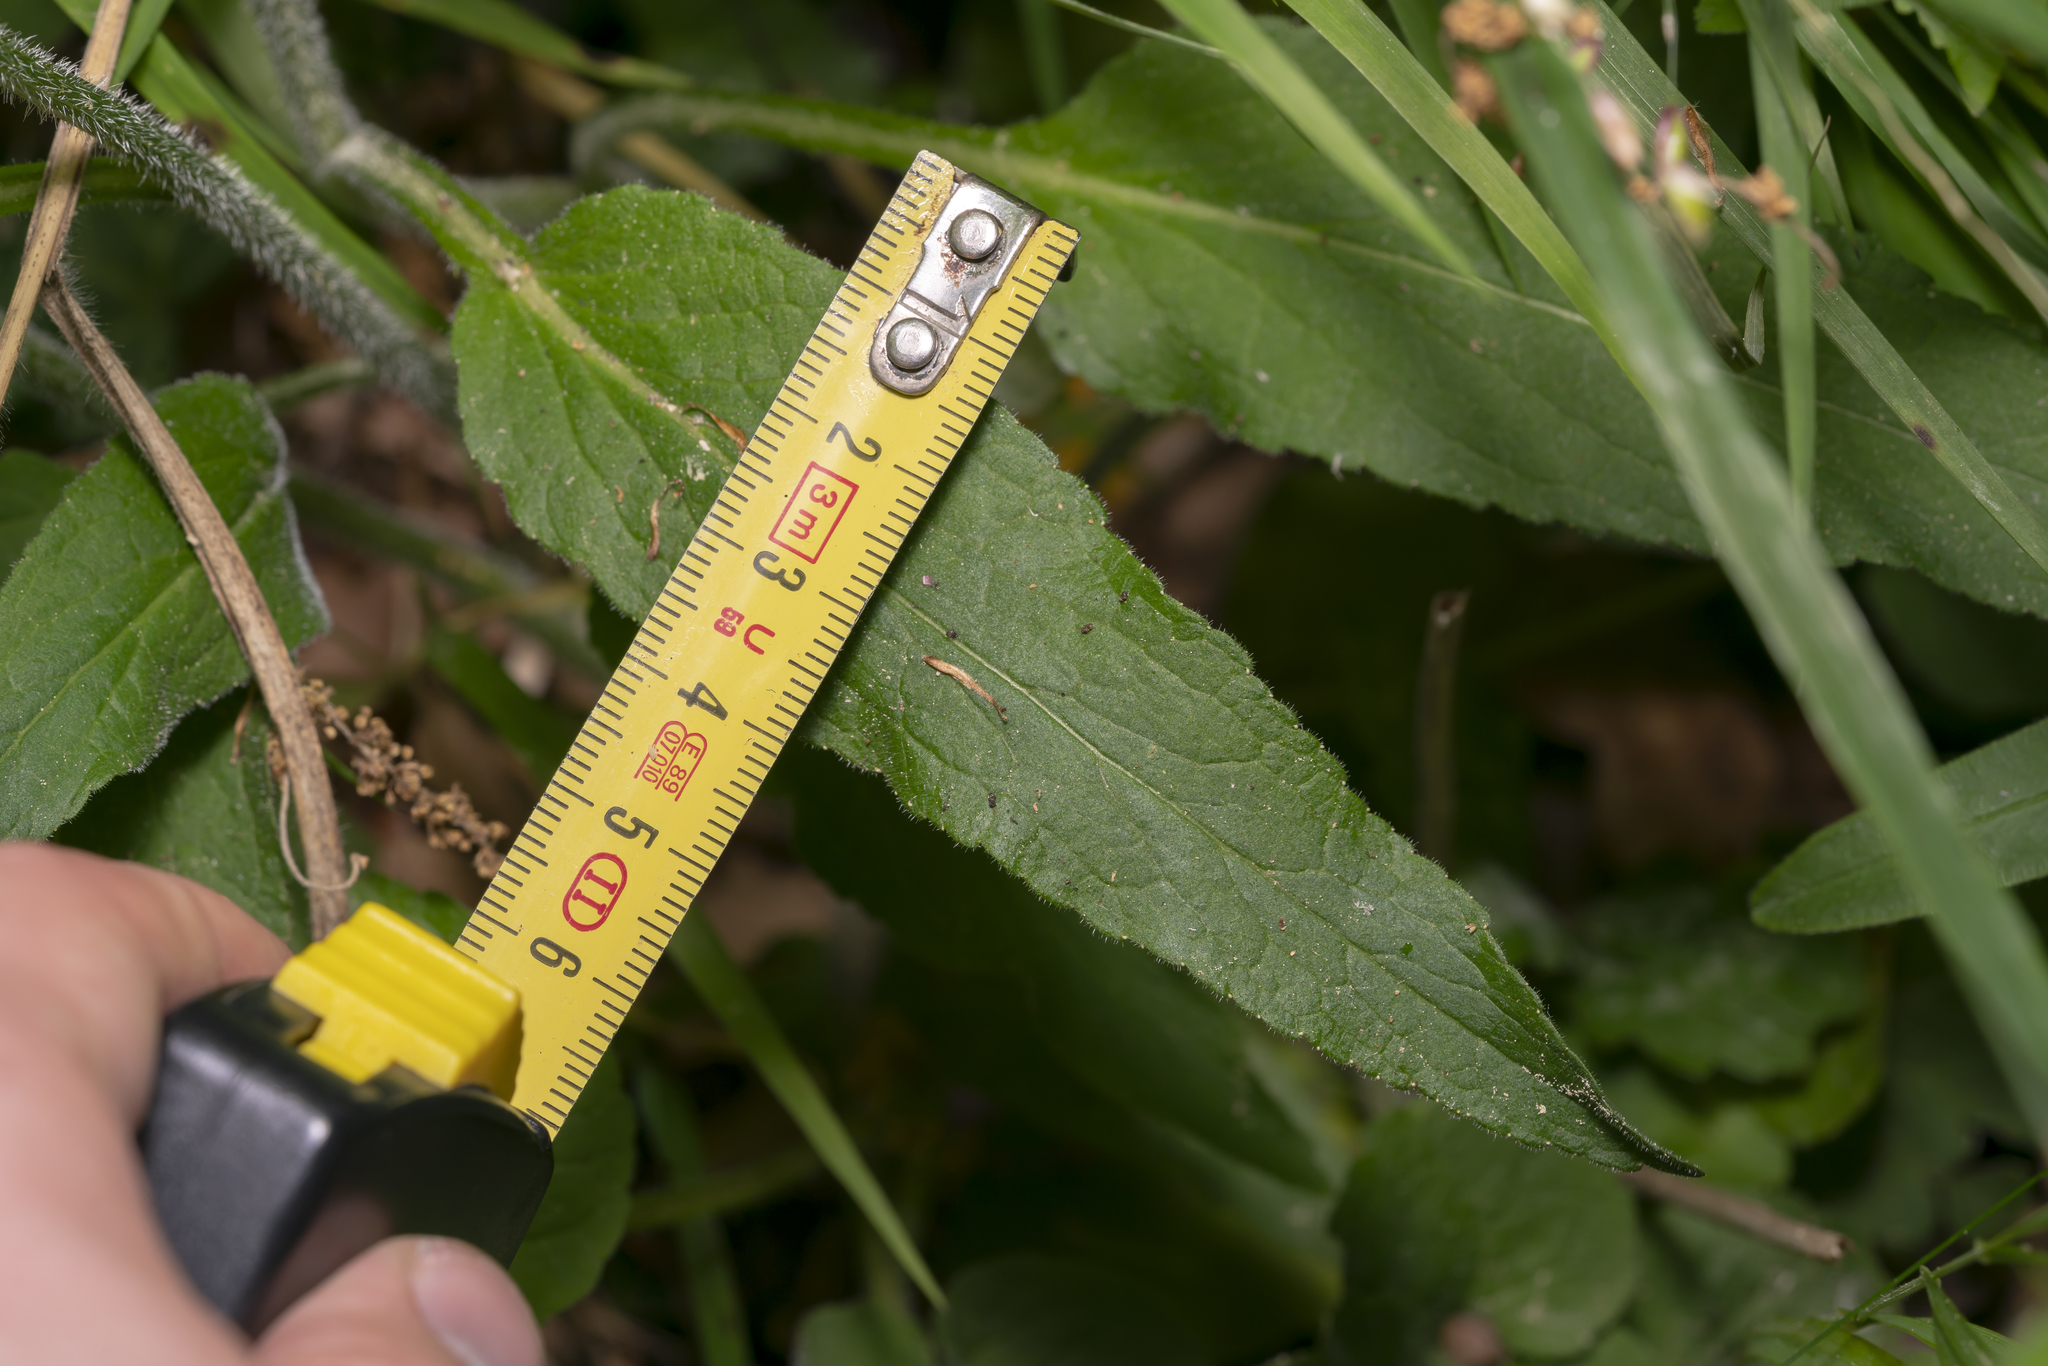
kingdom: Plantae
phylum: Tracheophyta
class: Magnoliopsida
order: Asterales
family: Campanulaceae
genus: Phyteuma
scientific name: Phyteuma betonicifolium
